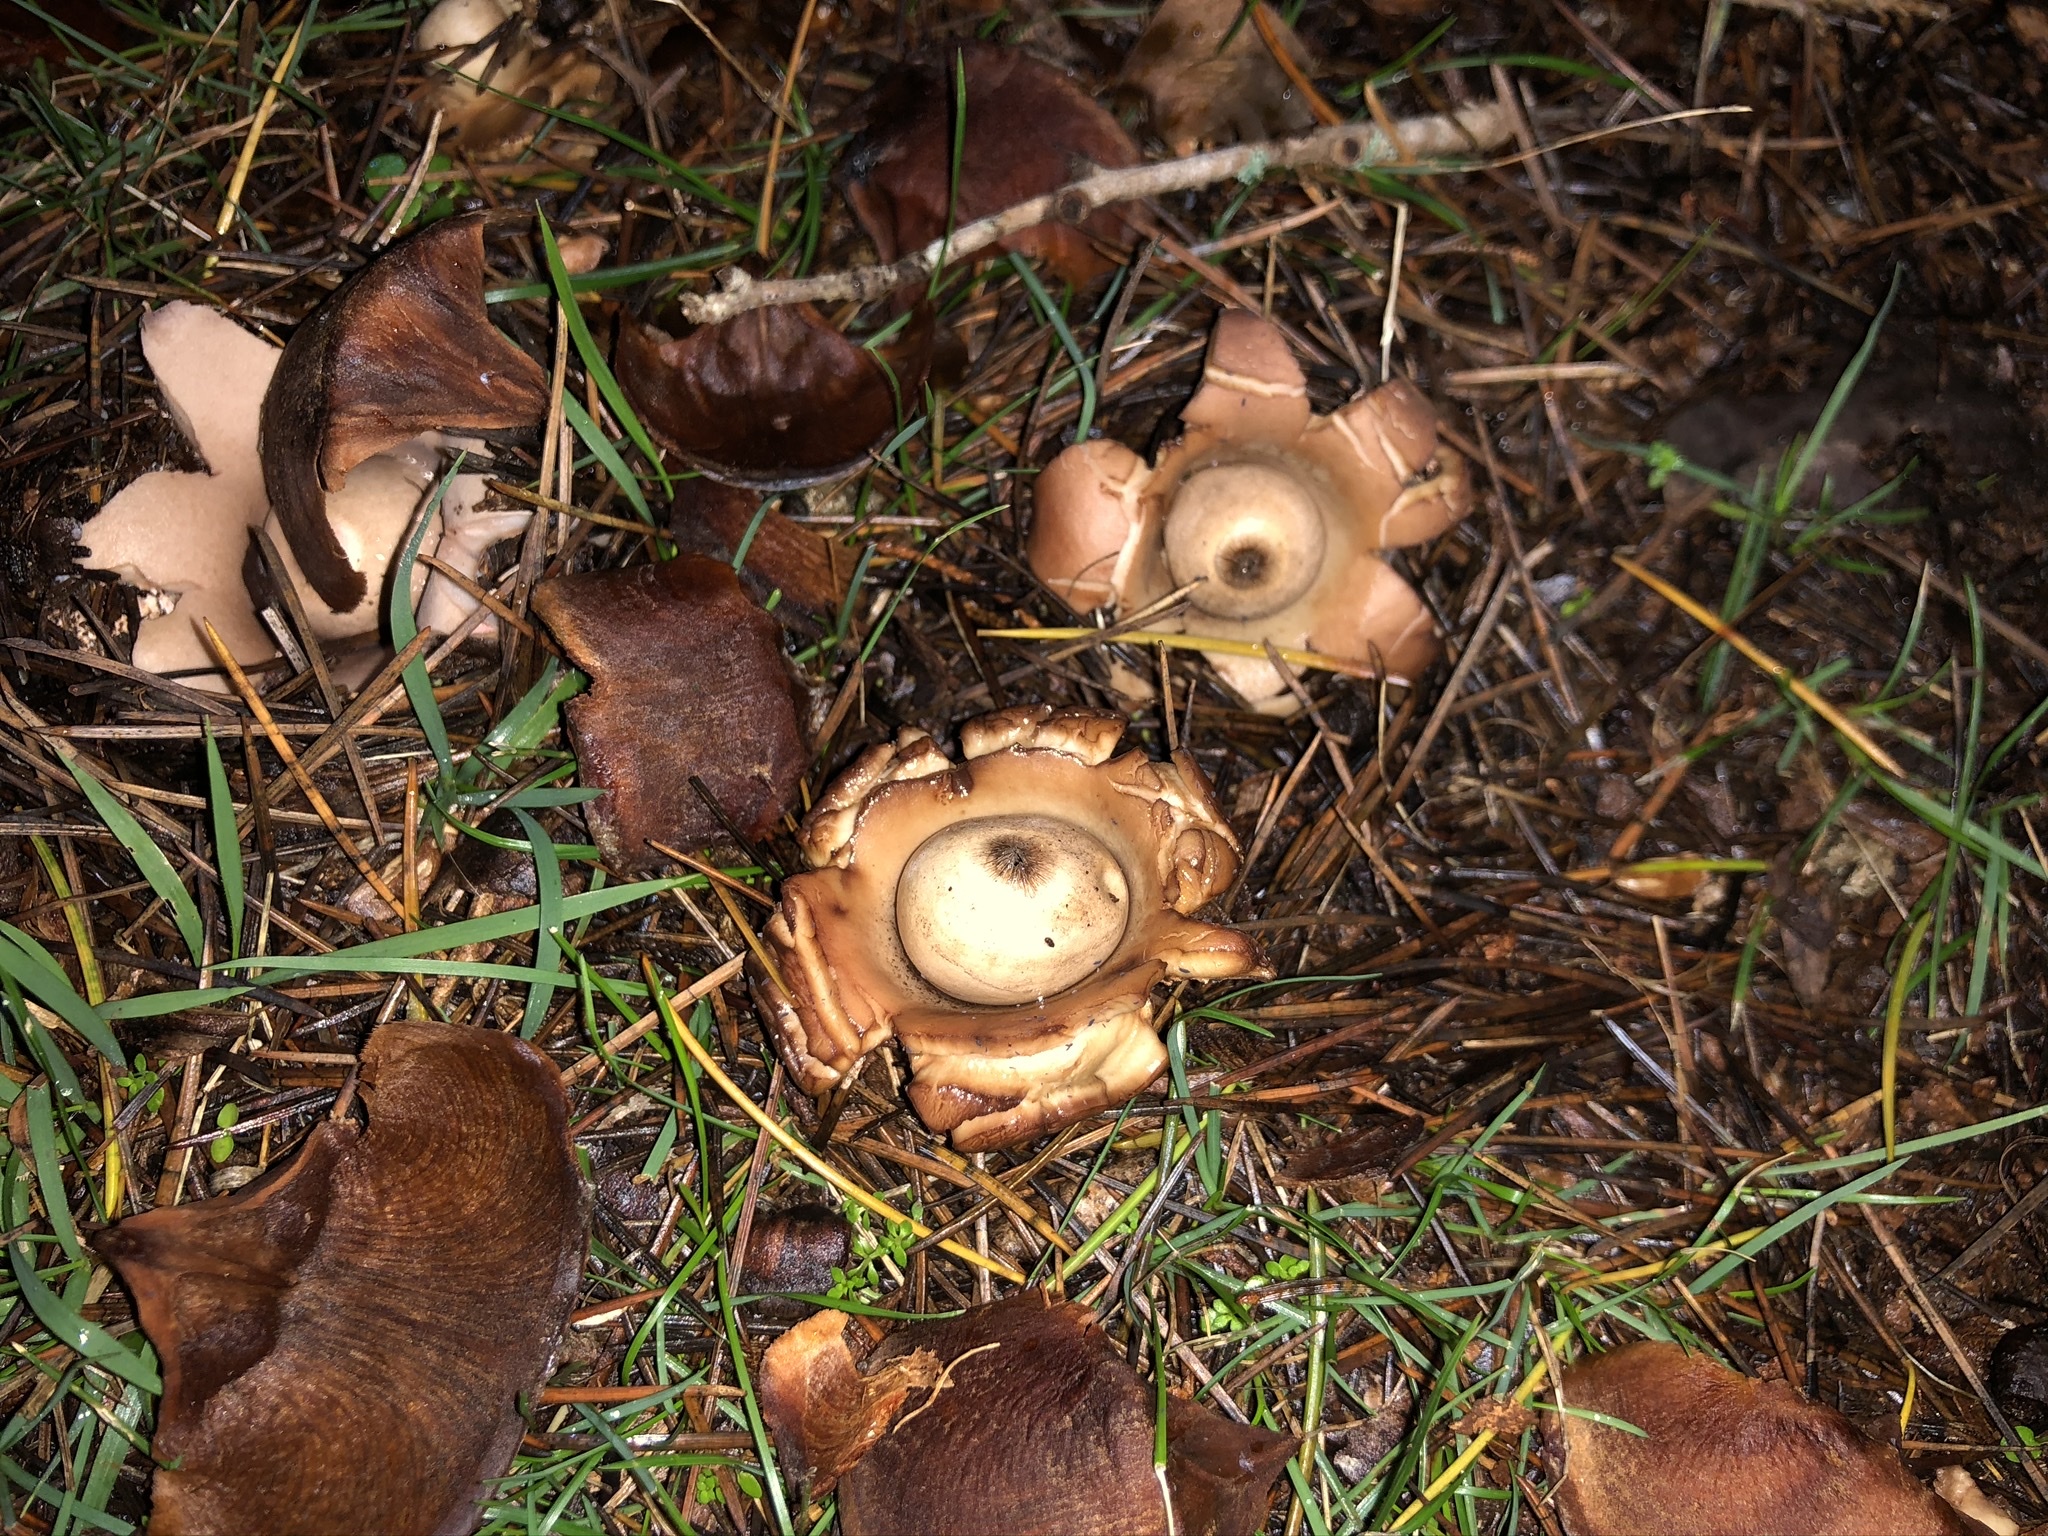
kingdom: Fungi
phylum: Basidiomycota
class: Agaricomycetes
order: Geastrales
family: Geastraceae
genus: Geastrum
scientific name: Geastrum triplex
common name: Collared earthstar
